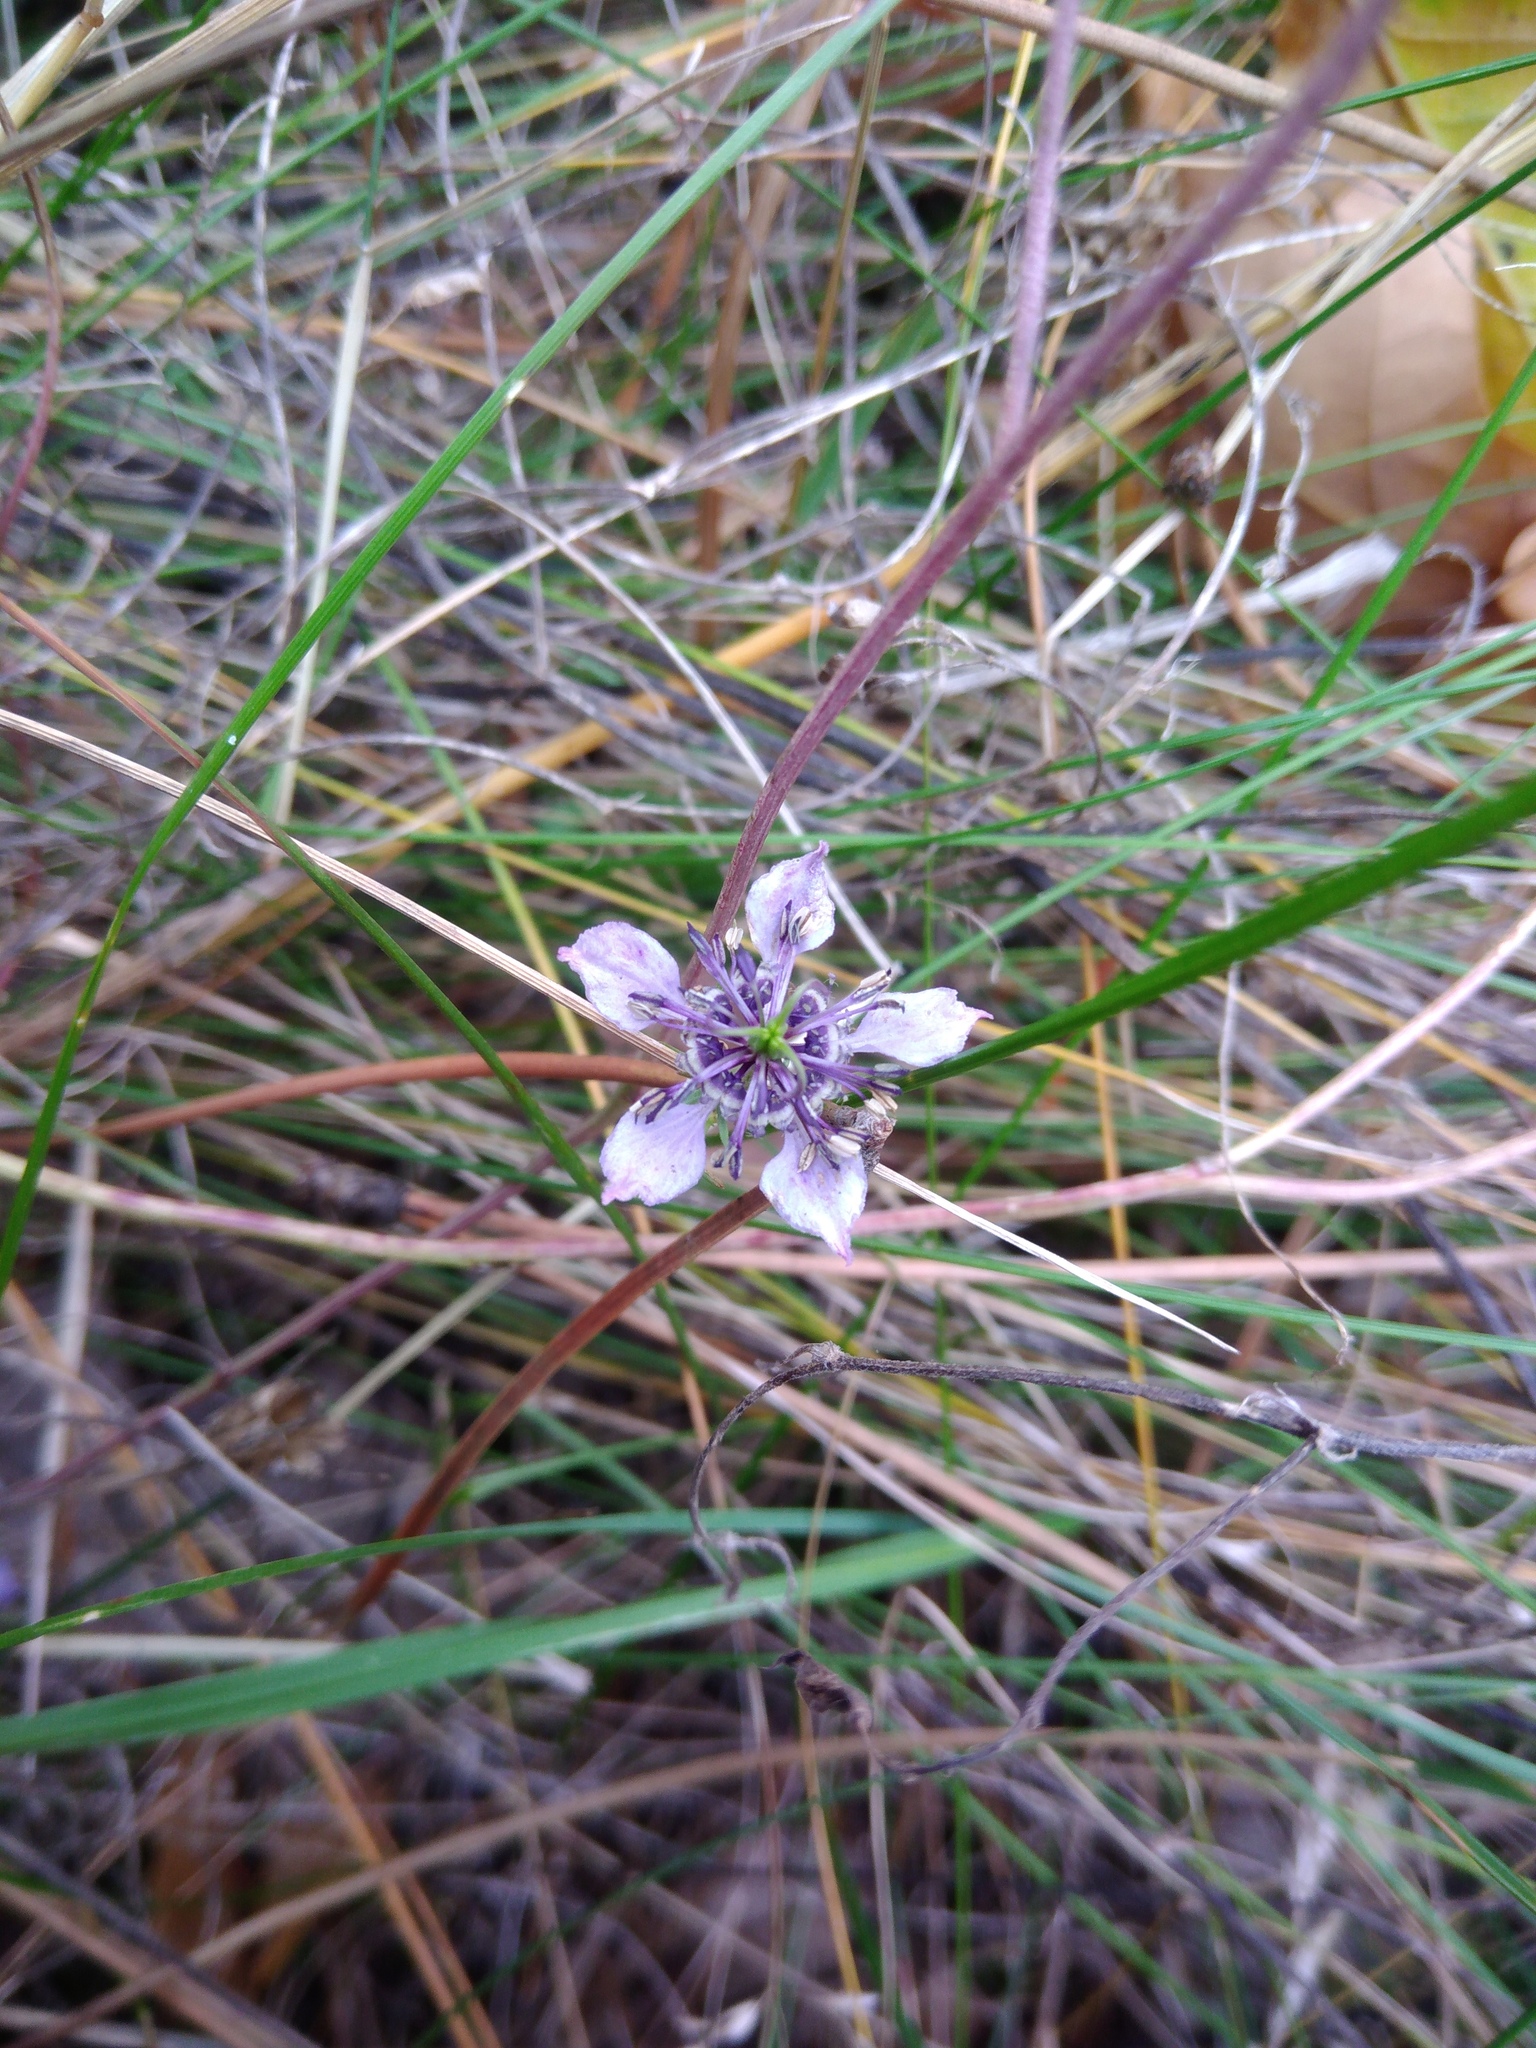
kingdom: Plantae
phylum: Tracheophyta
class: Magnoliopsida
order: Ranunculales
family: Ranunculaceae
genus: Nigella
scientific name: Nigella arvensis
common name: Wild fennel-flower
